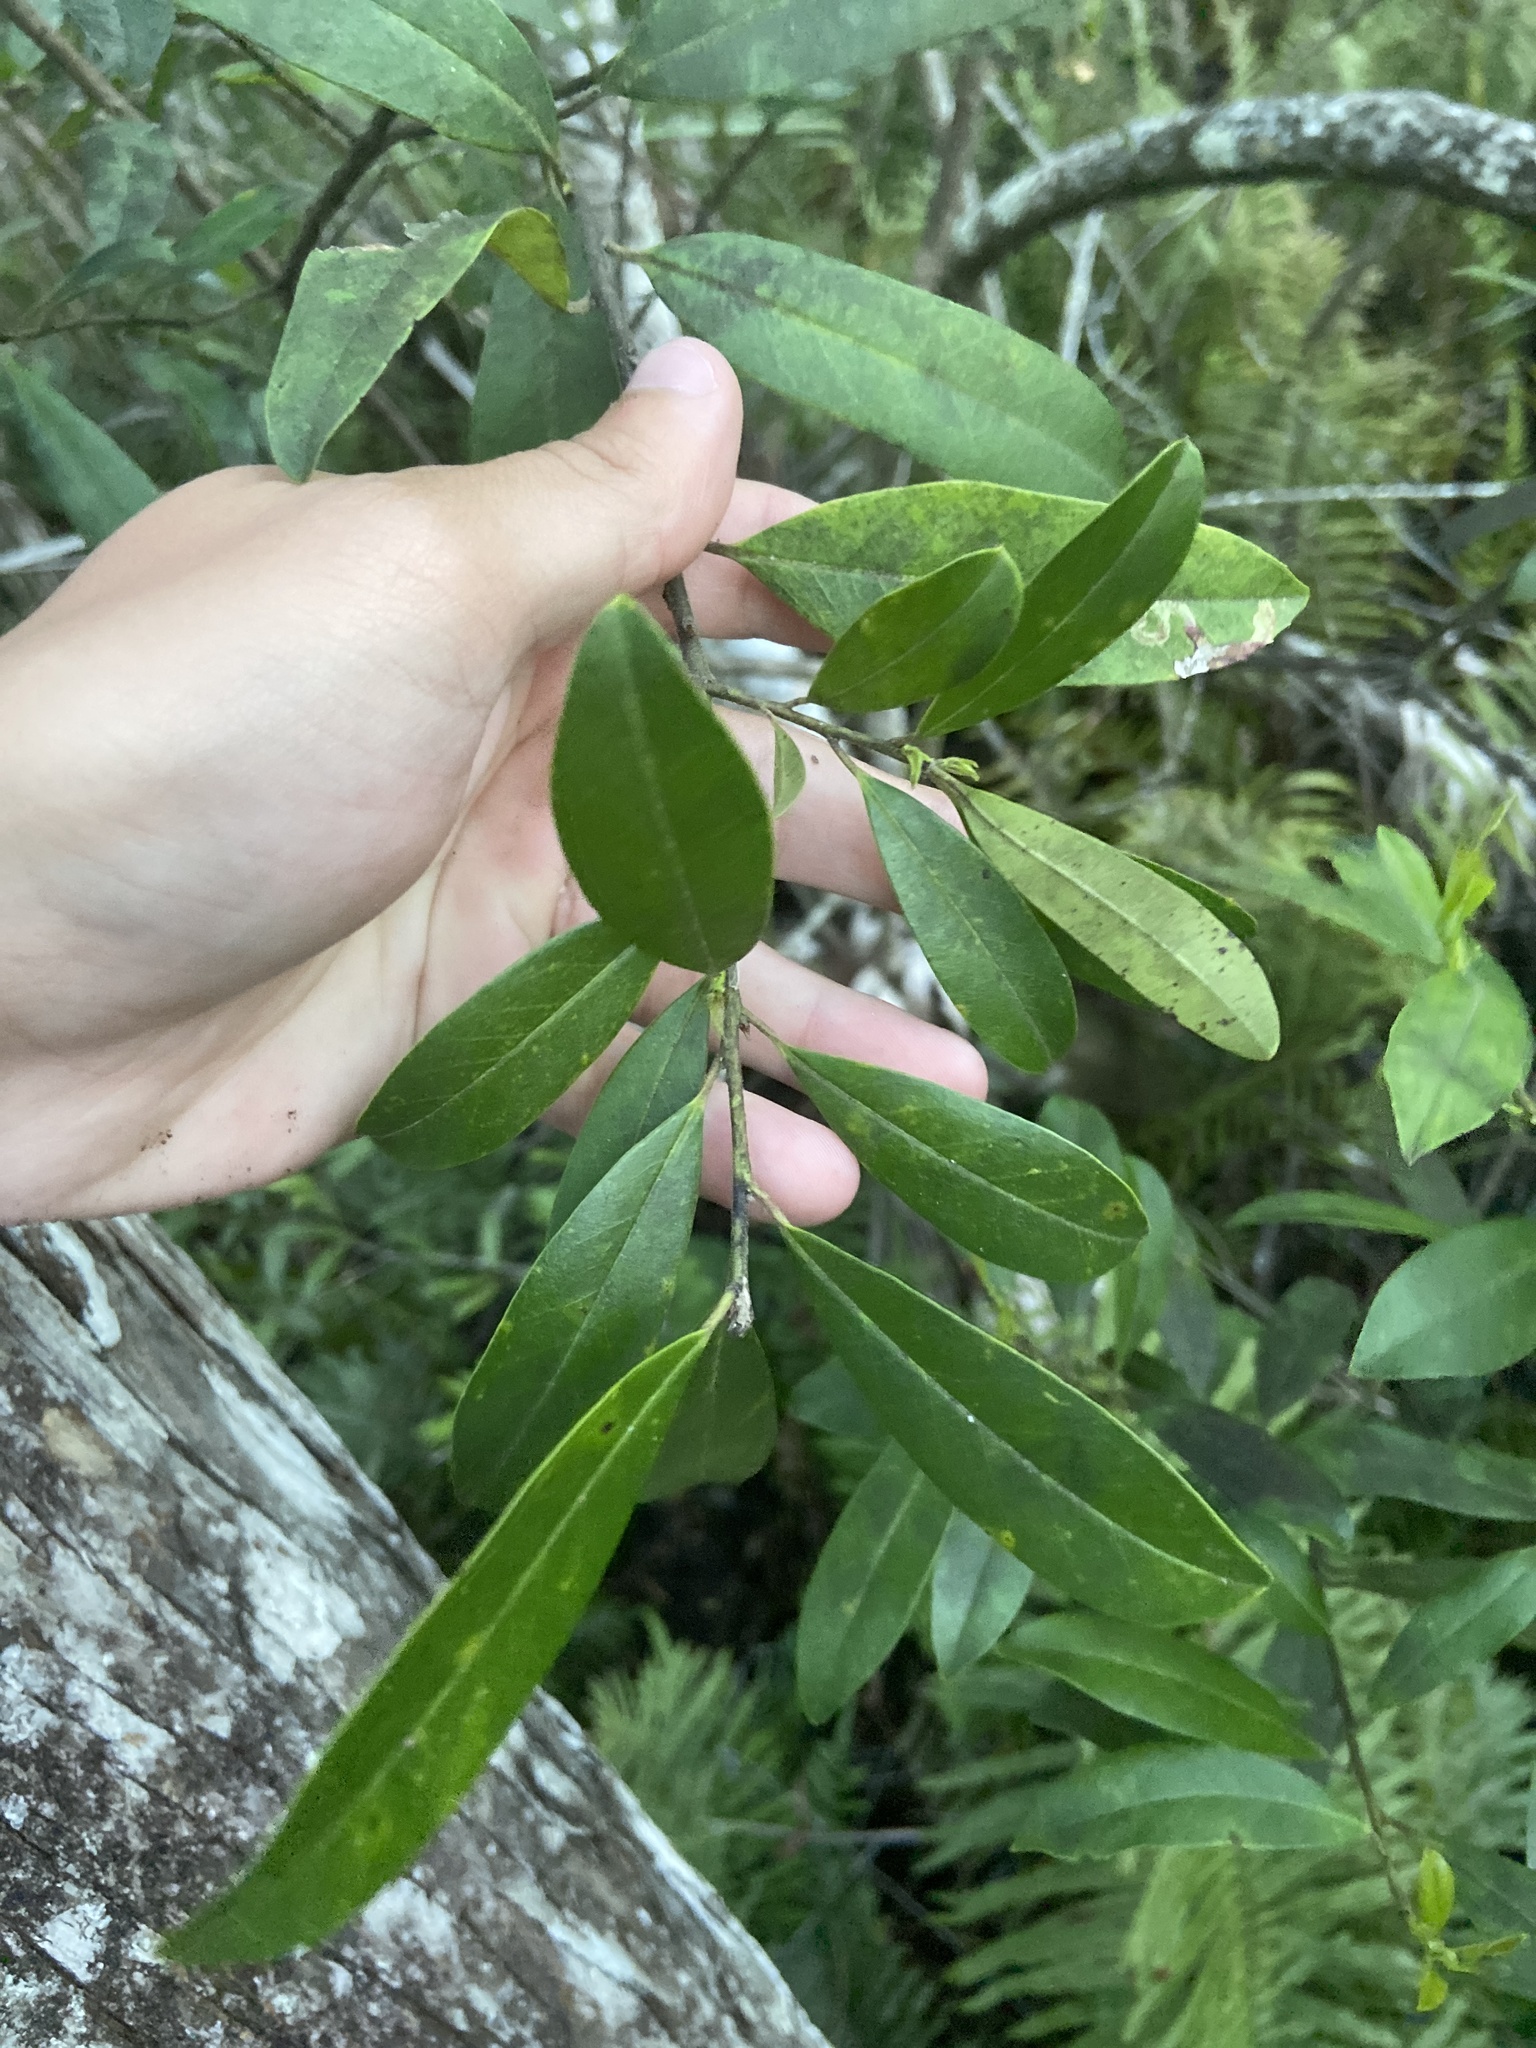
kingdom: Plantae
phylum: Tracheophyta
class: Magnoliopsida
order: Aquifoliales
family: Aquifoliaceae
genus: Ilex
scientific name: Ilex cassine
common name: Dahoon
